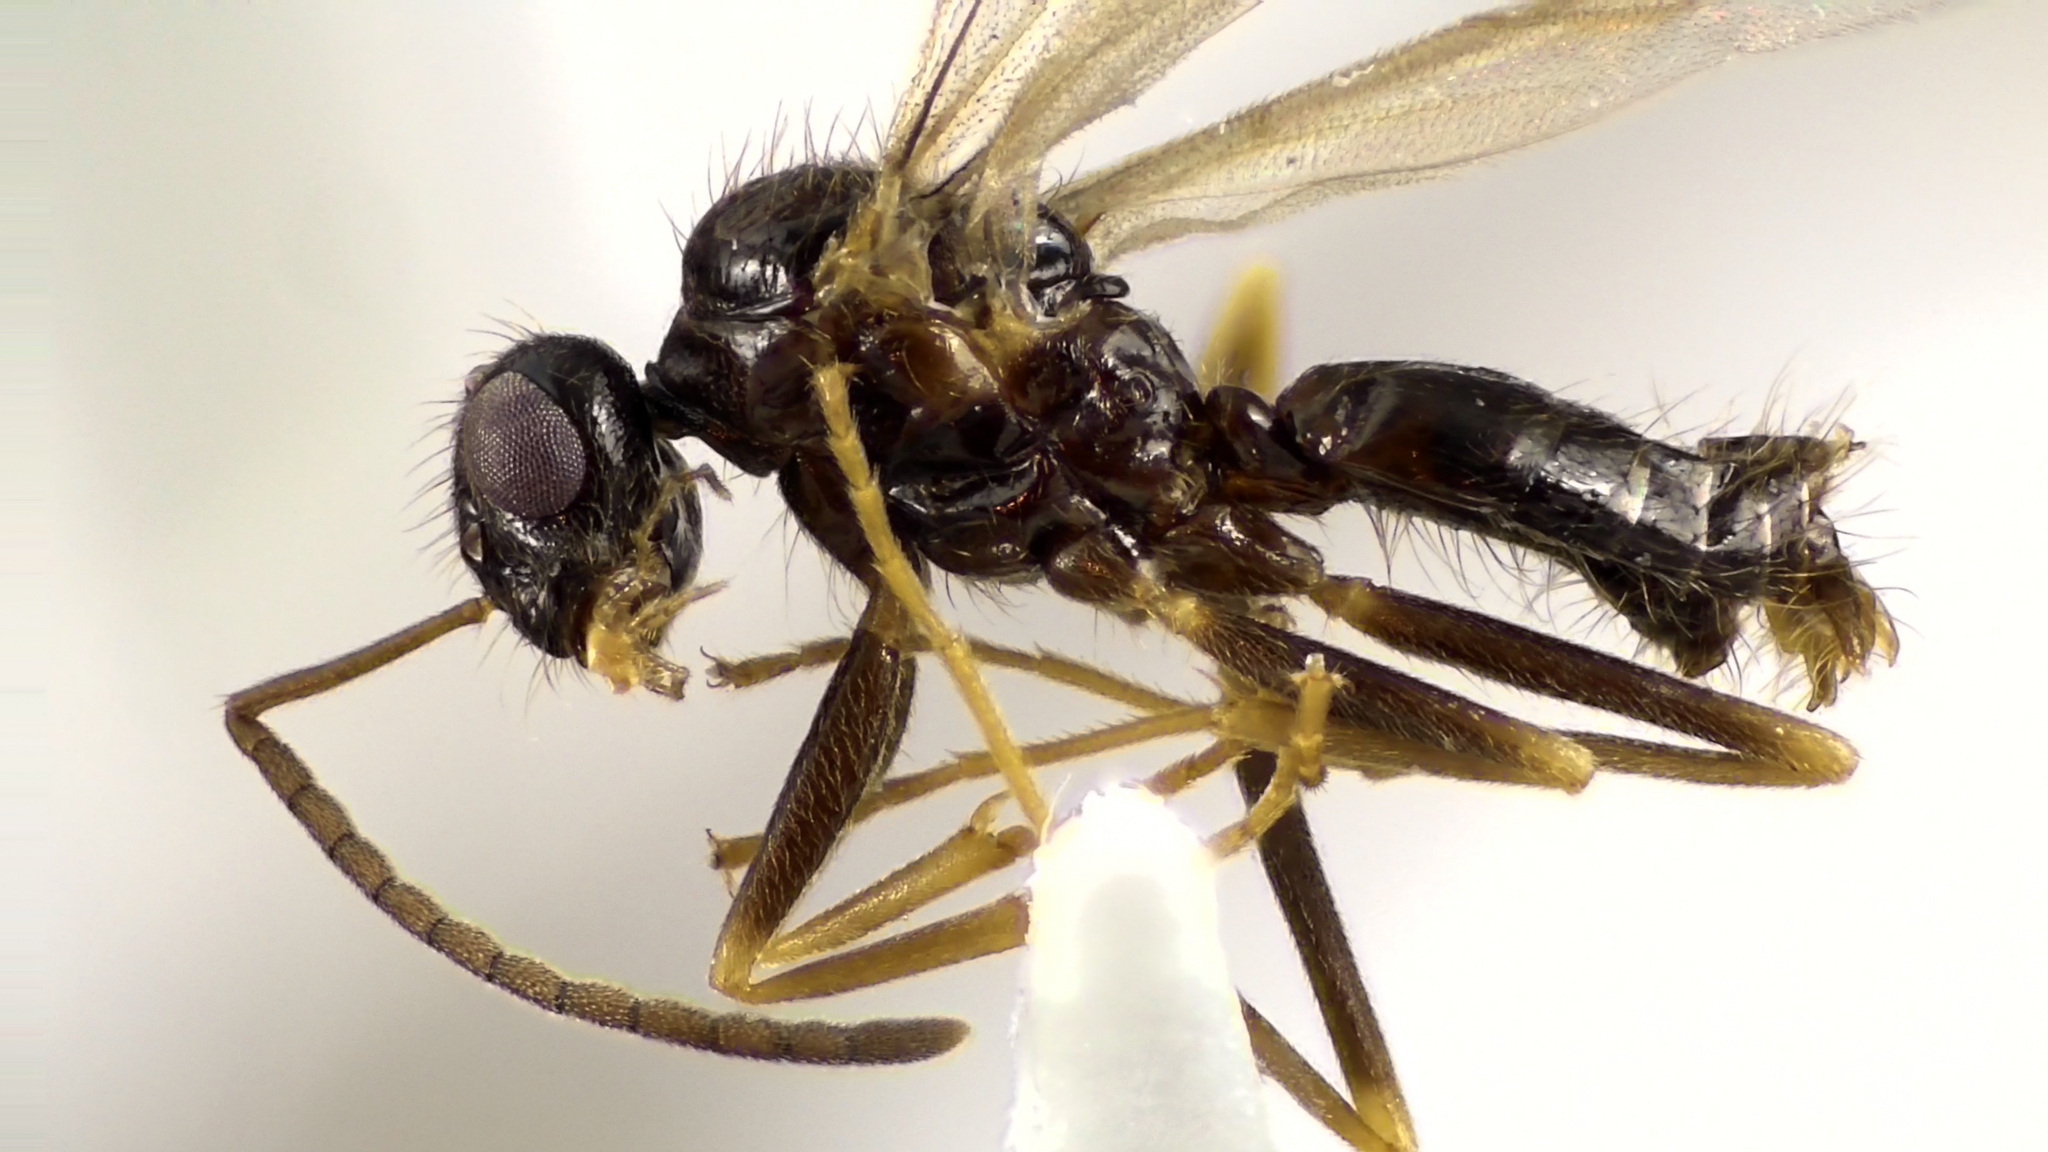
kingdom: Animalia
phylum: Arthropoda
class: Insecta
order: Hymenoptera
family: Formicidae
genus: Prenolepis
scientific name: Prenolepis imparis
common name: Small honey ant
